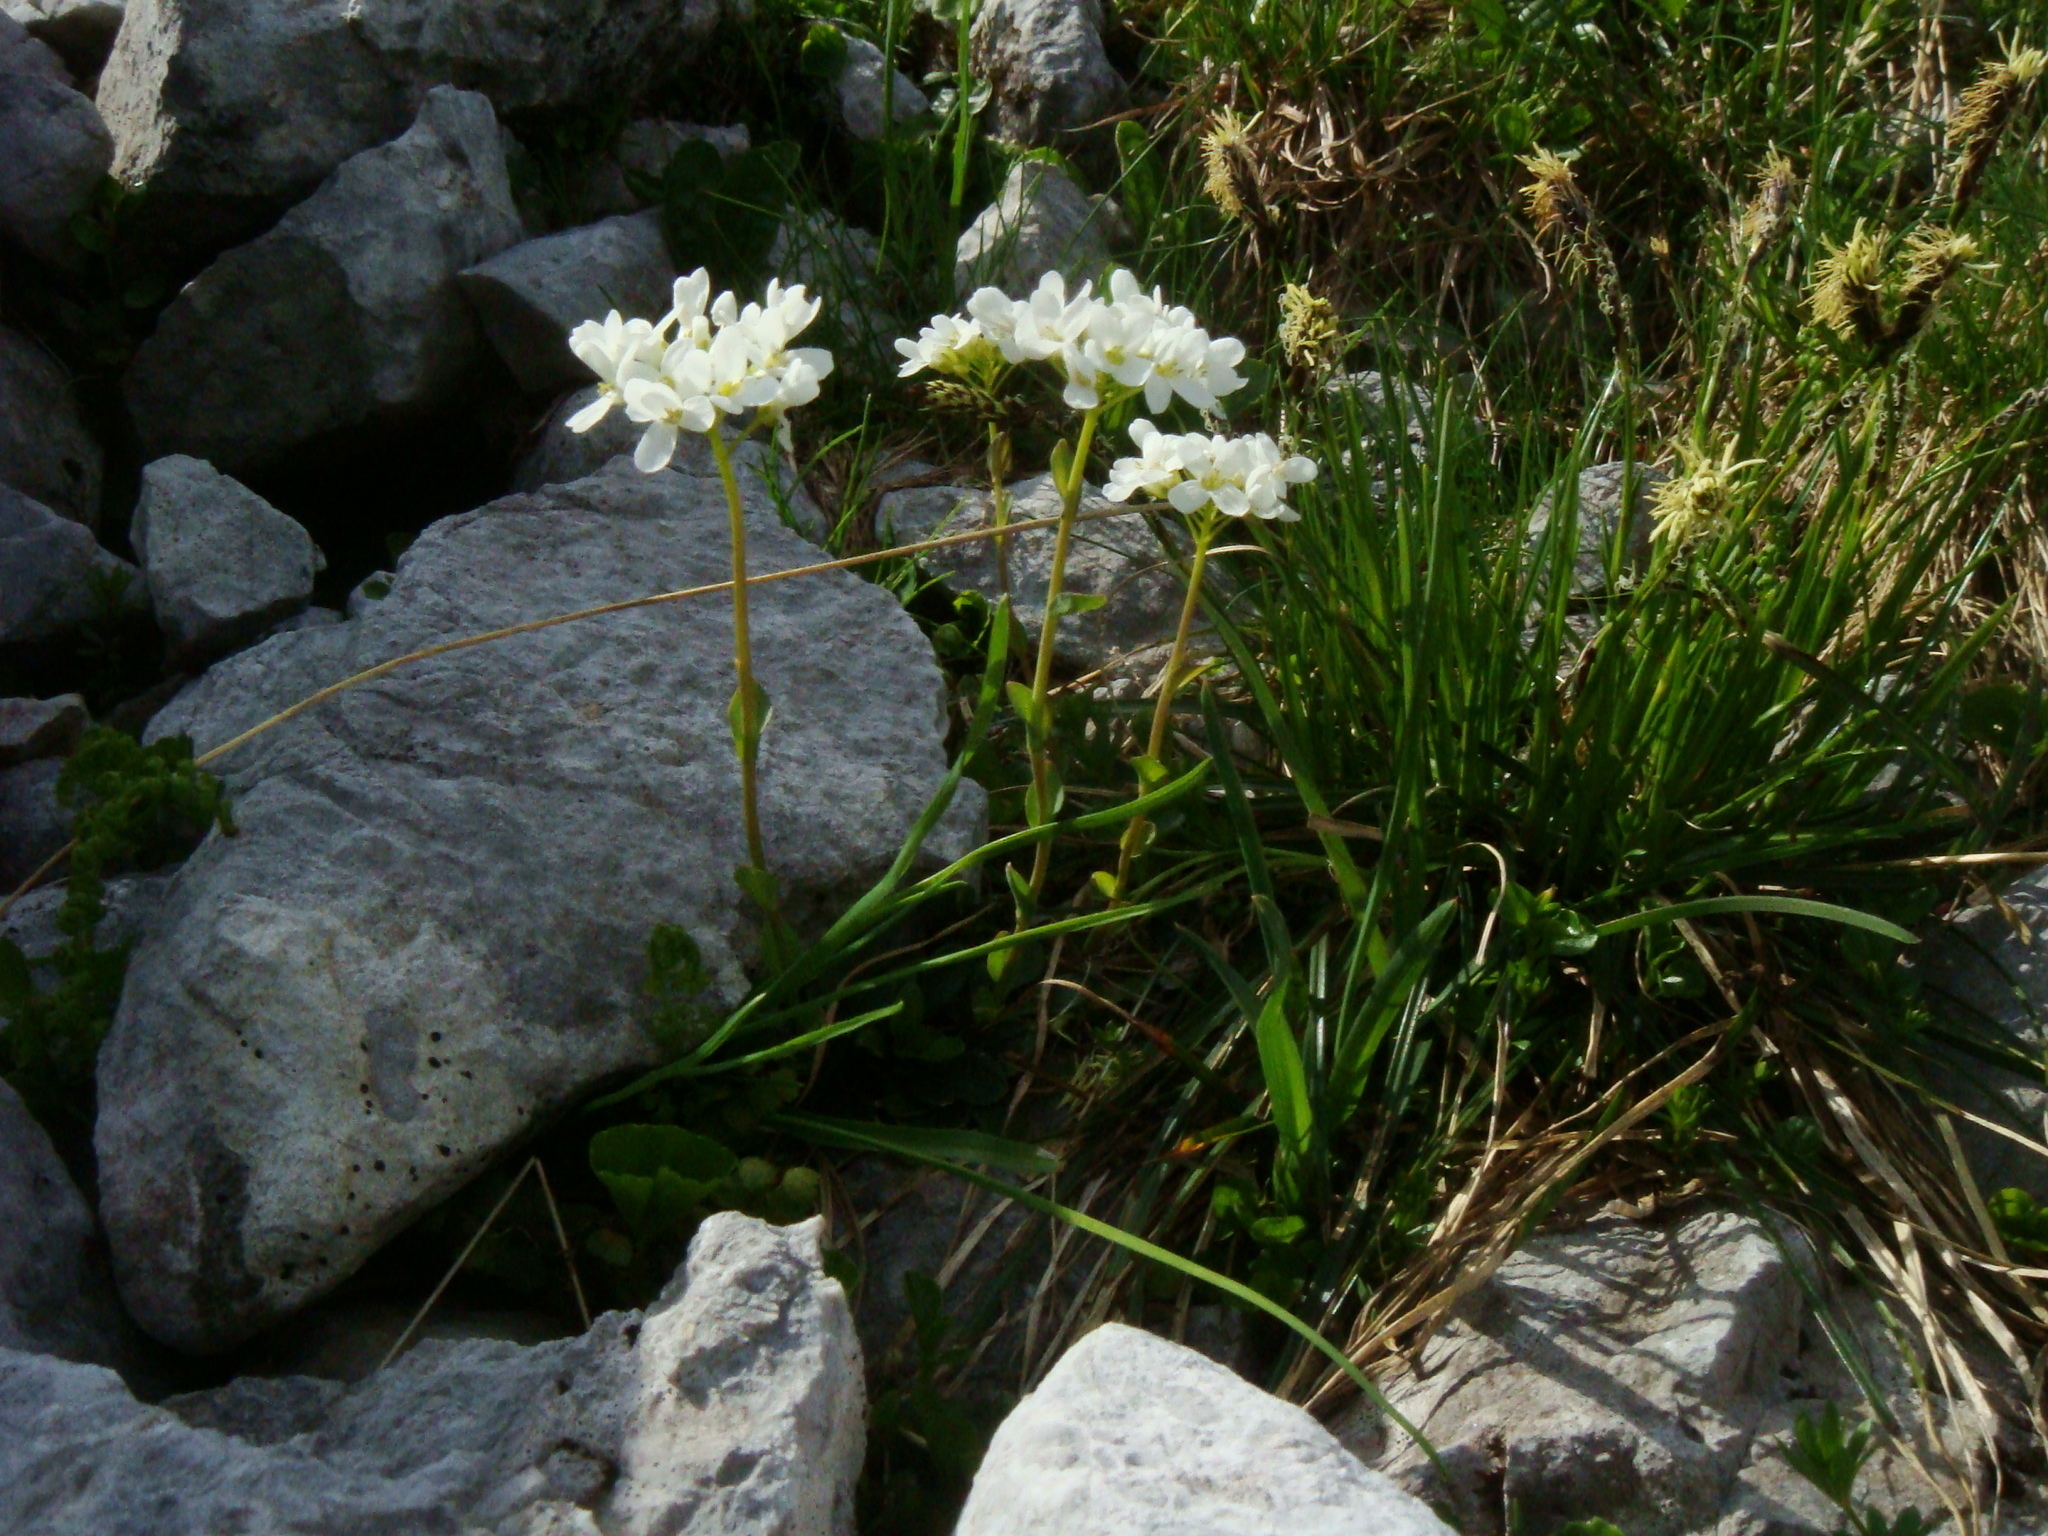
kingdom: Plantae
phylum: Tracheophyta
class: Magnoliopsida
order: Brassicales
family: Brassicaceae
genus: Noccaea
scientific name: Noccaea alpestris
